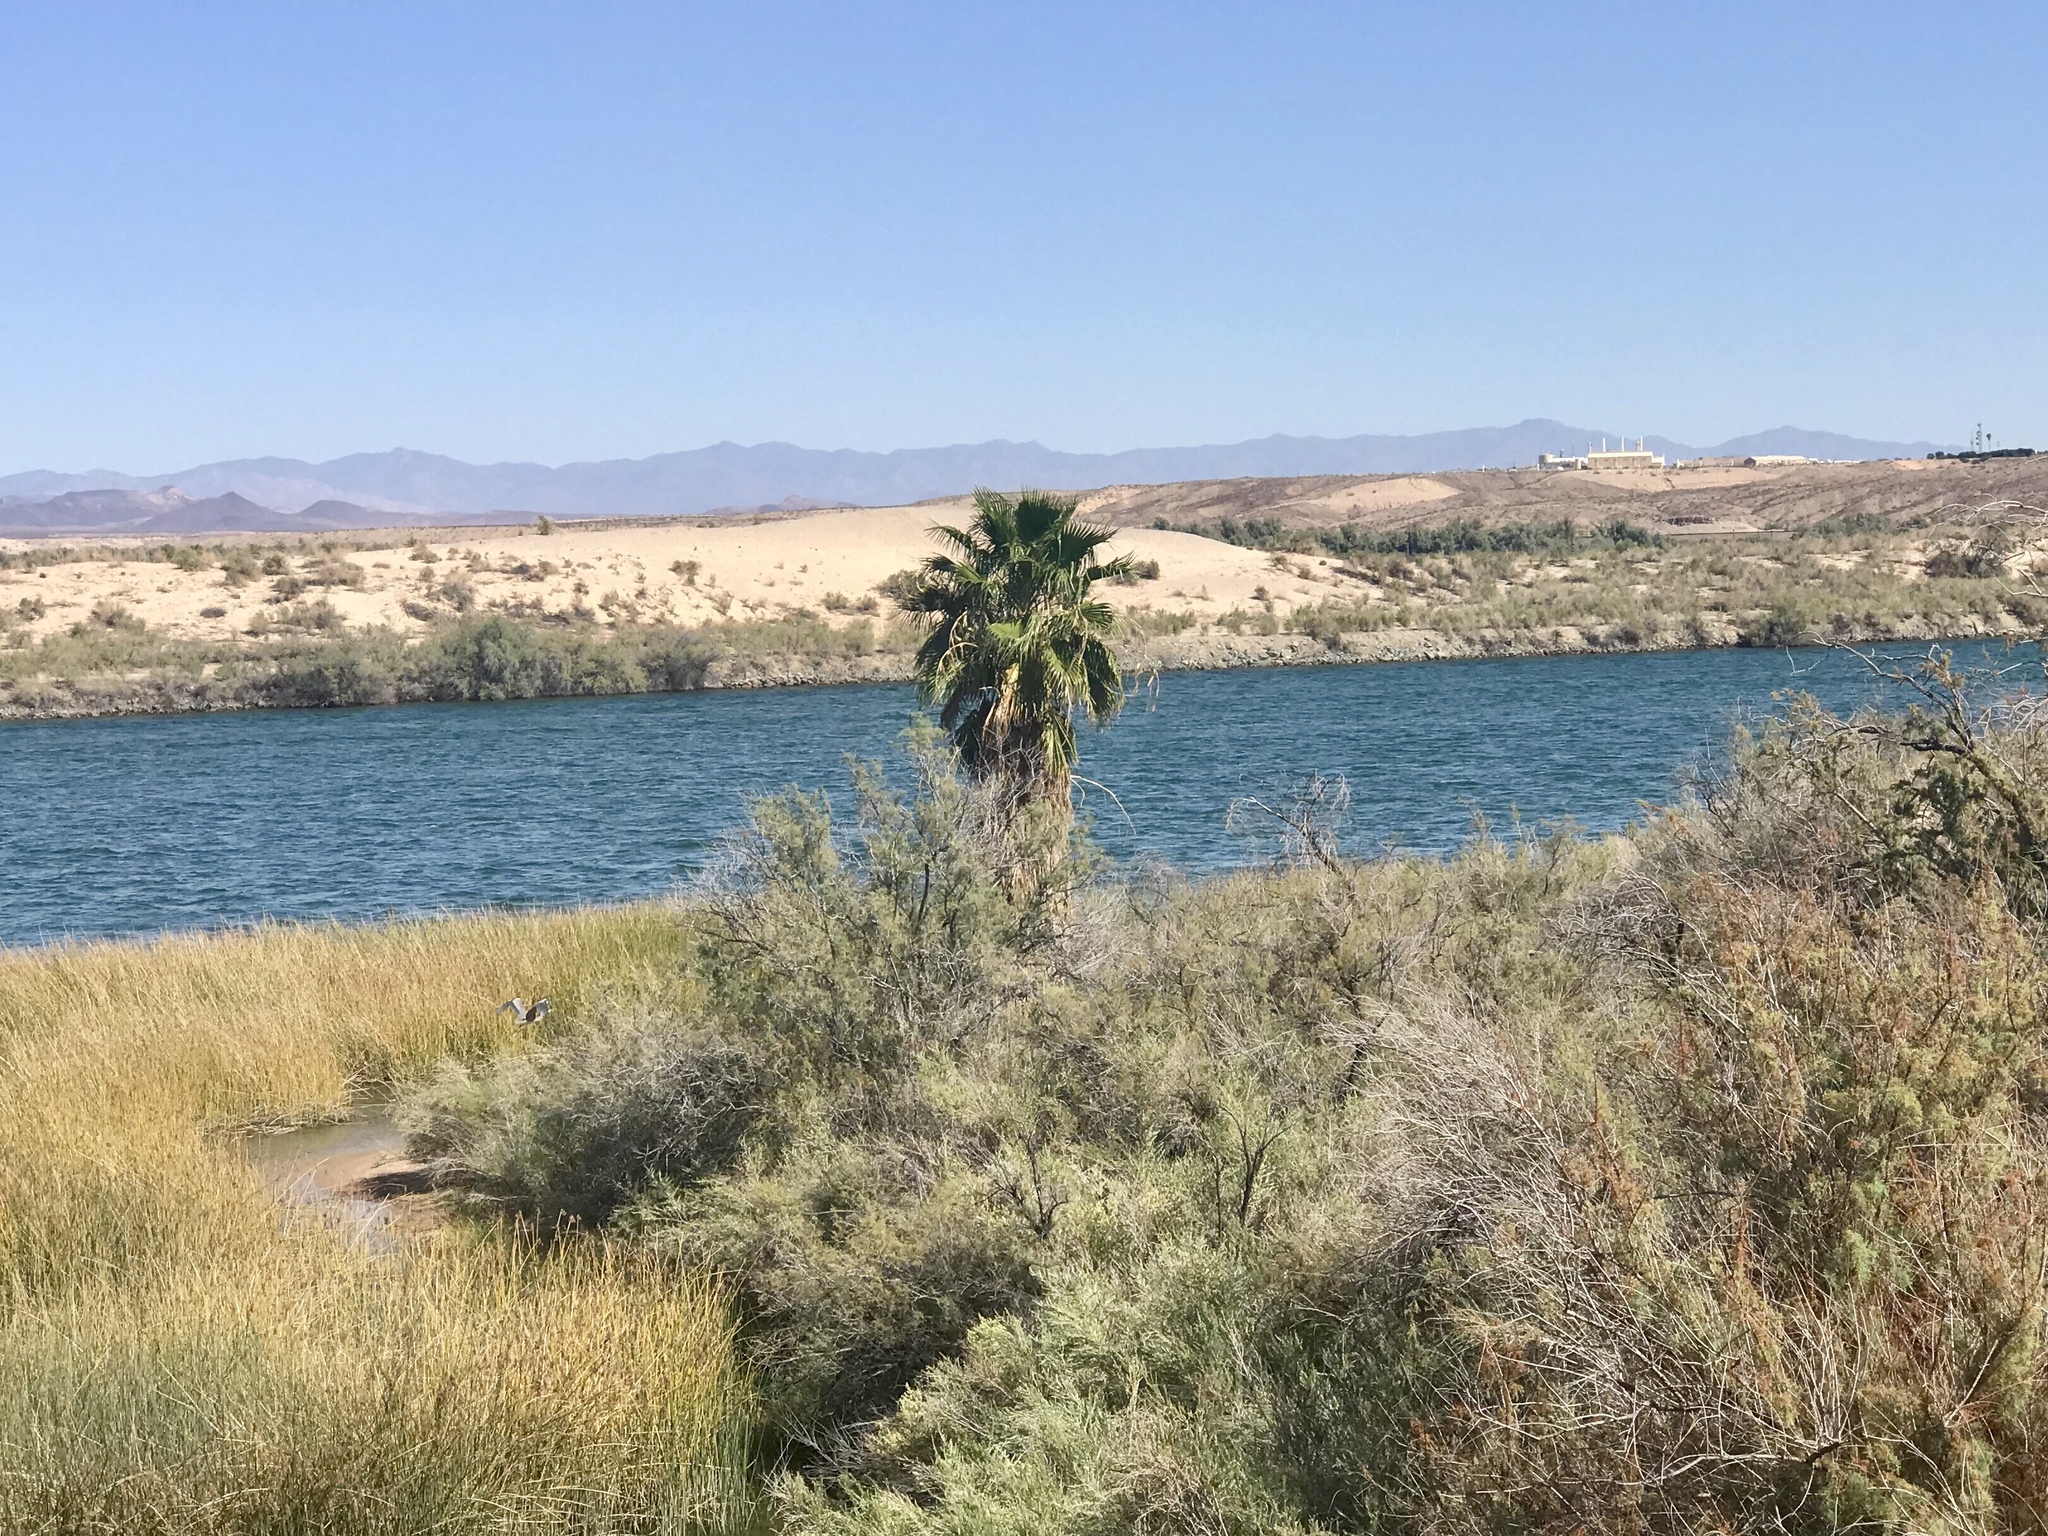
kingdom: Plantae
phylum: Tracheophyta
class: Liliopsida
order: Arecales
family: Arecaceae
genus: Washingtonia
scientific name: Washingtonia filifera
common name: California fan palm
